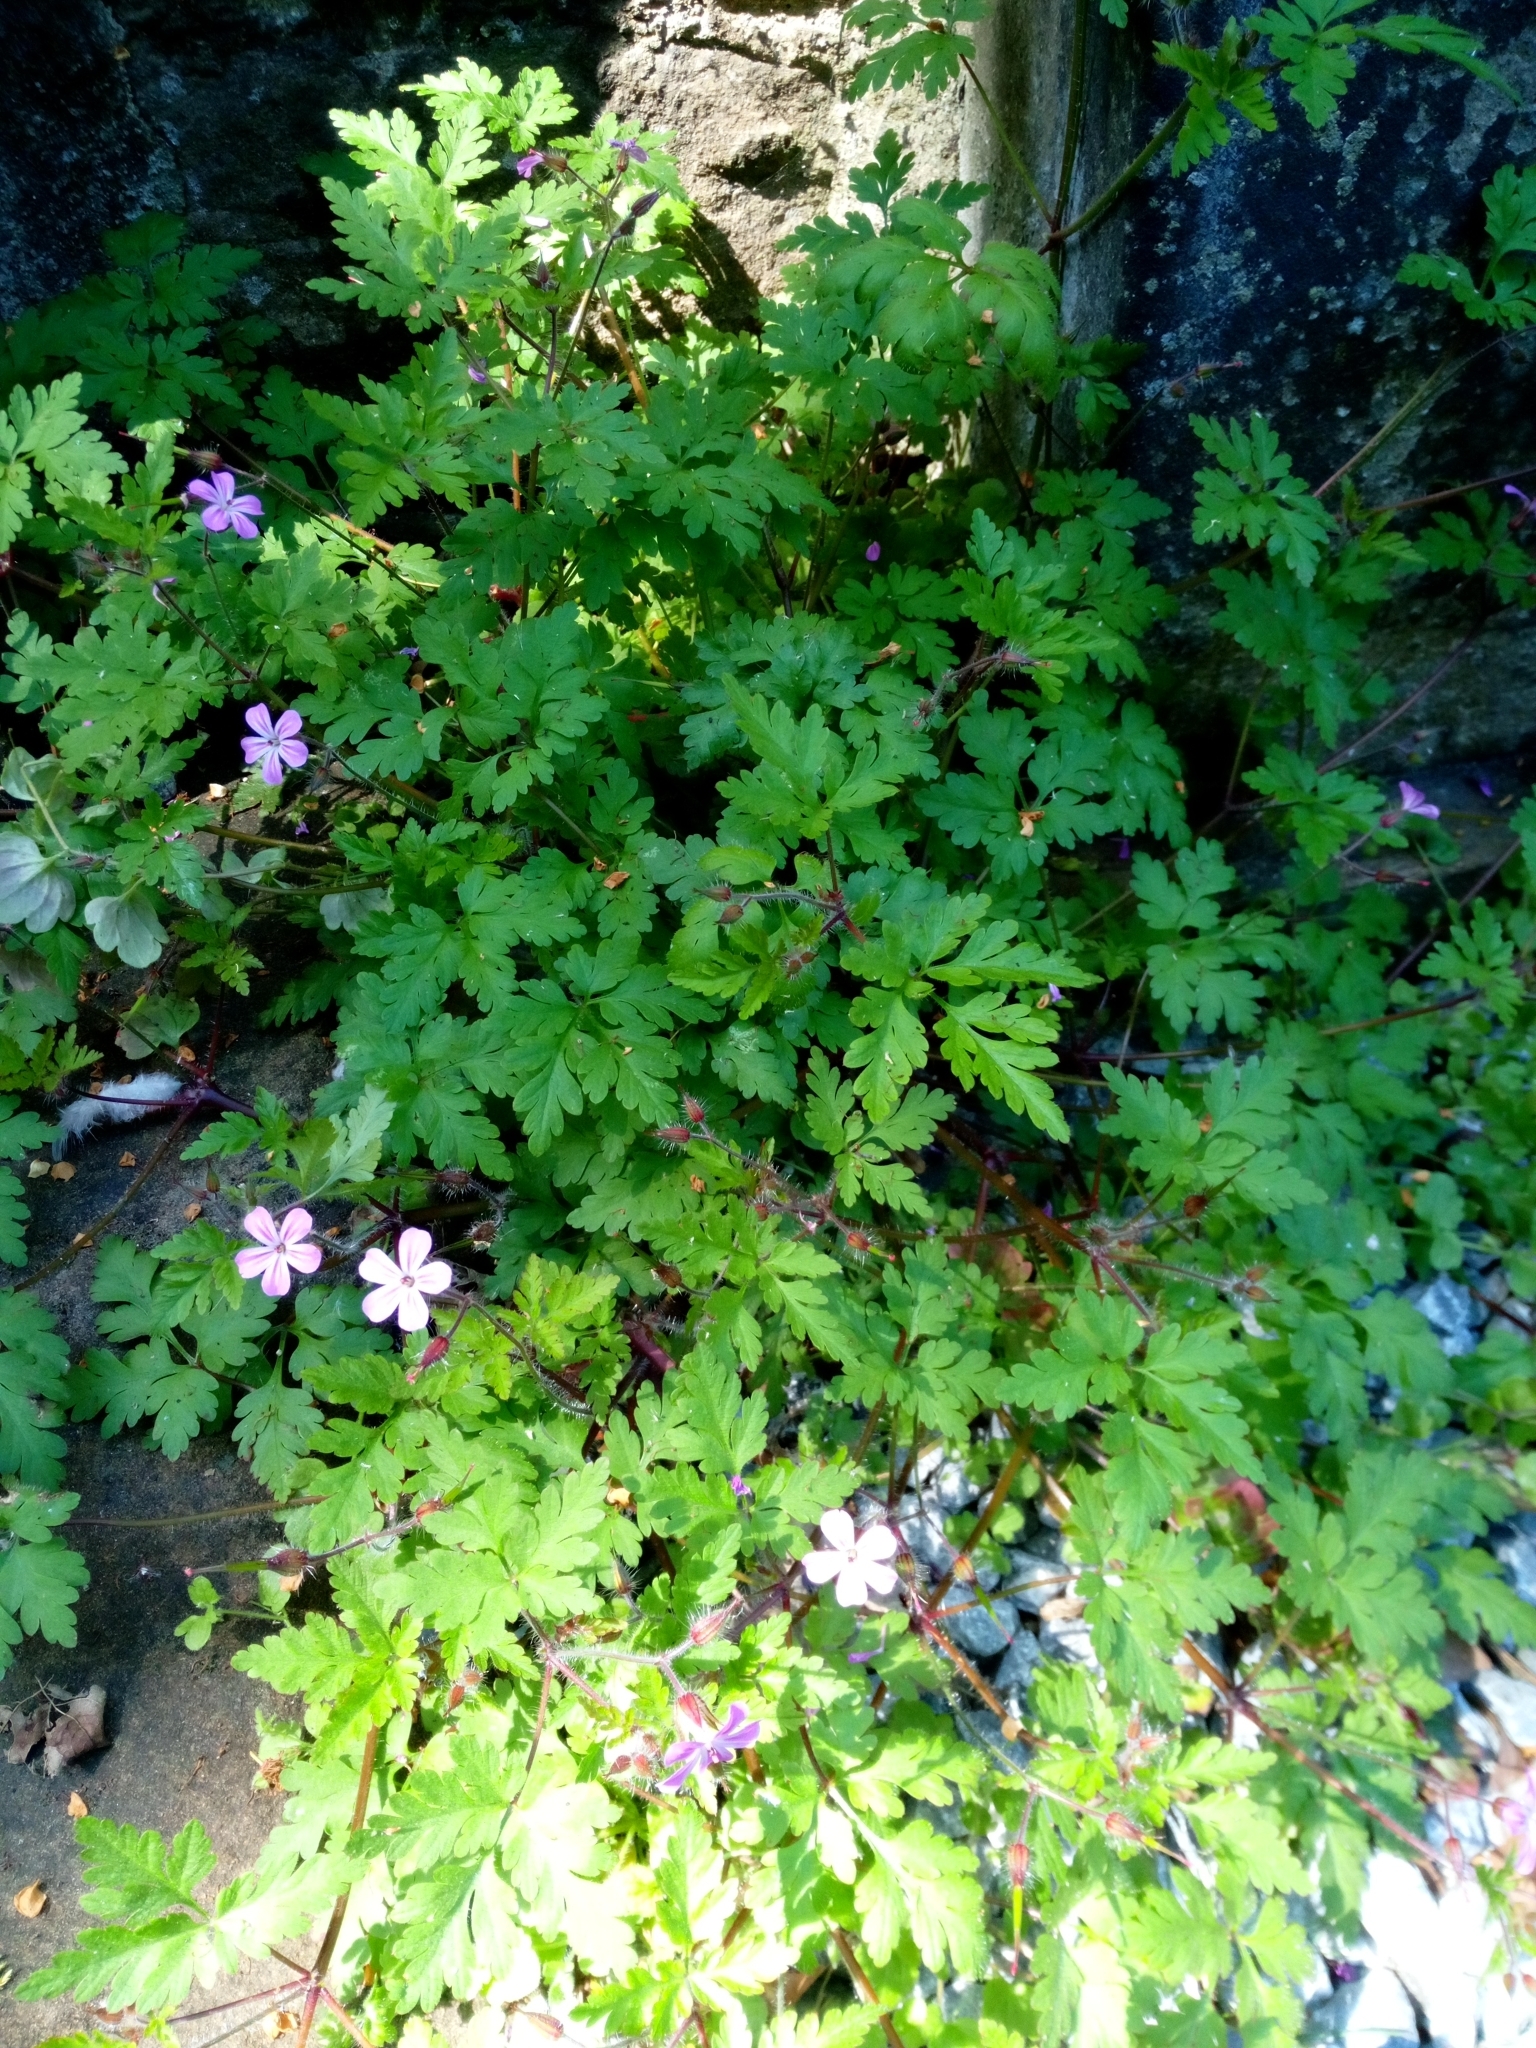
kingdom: Plantae
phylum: Tracheophyta
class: Magnoliopsida
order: Geraniales
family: Geraniaceae
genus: Geranium
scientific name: Geranium robertianum
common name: Herb-robert
